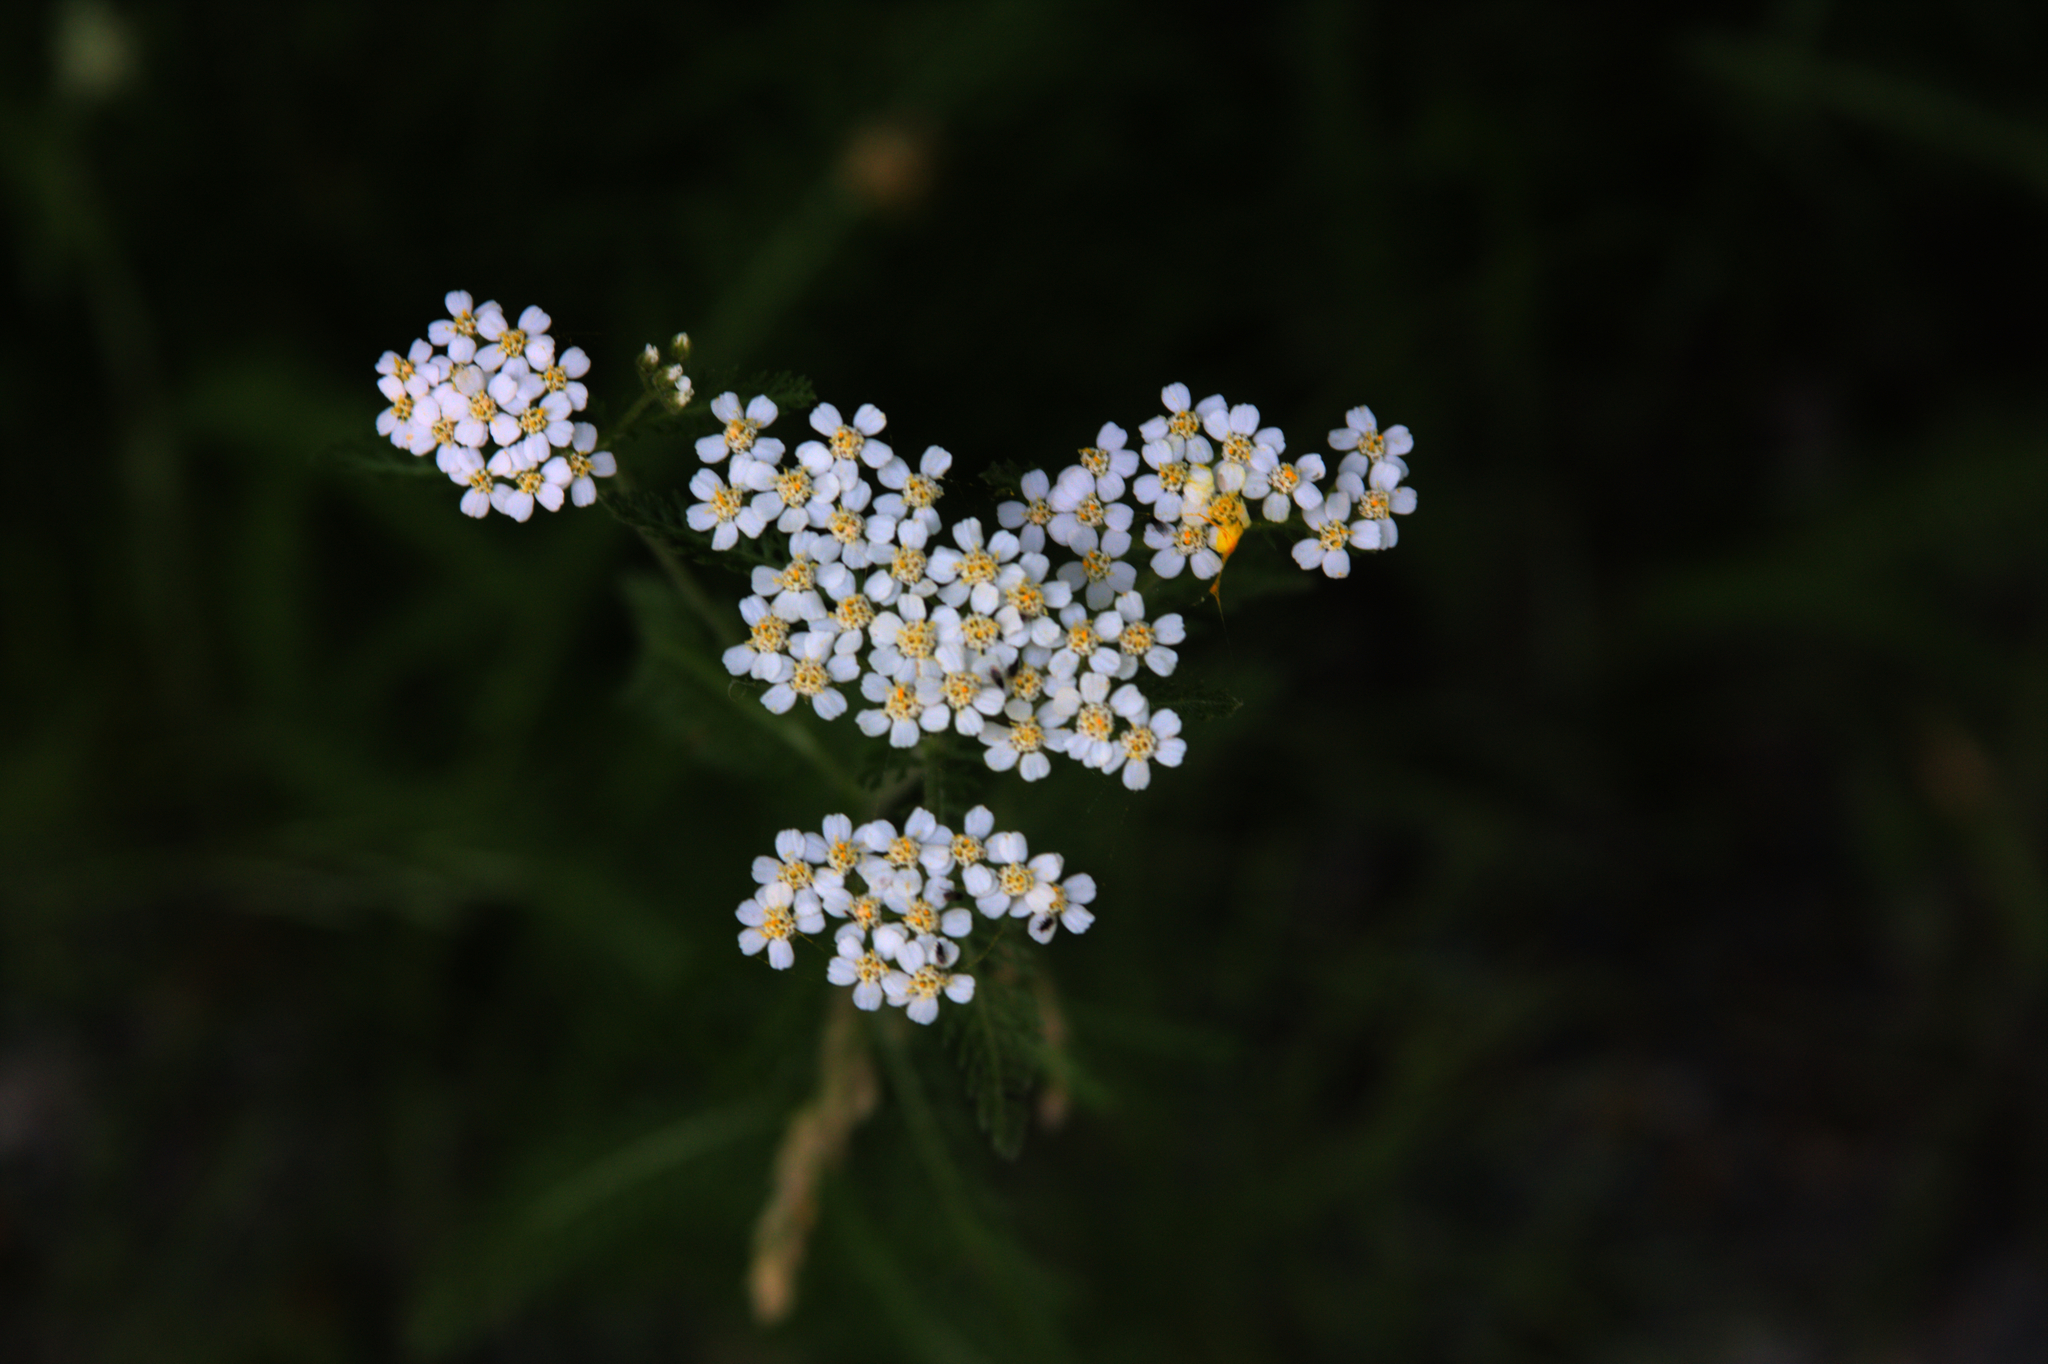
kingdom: Plantae
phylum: Tracheophyta
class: Magnoliopsida
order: Asterales
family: Asteraceae
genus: Achillea
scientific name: Achillea millefolium
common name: Yarrow
